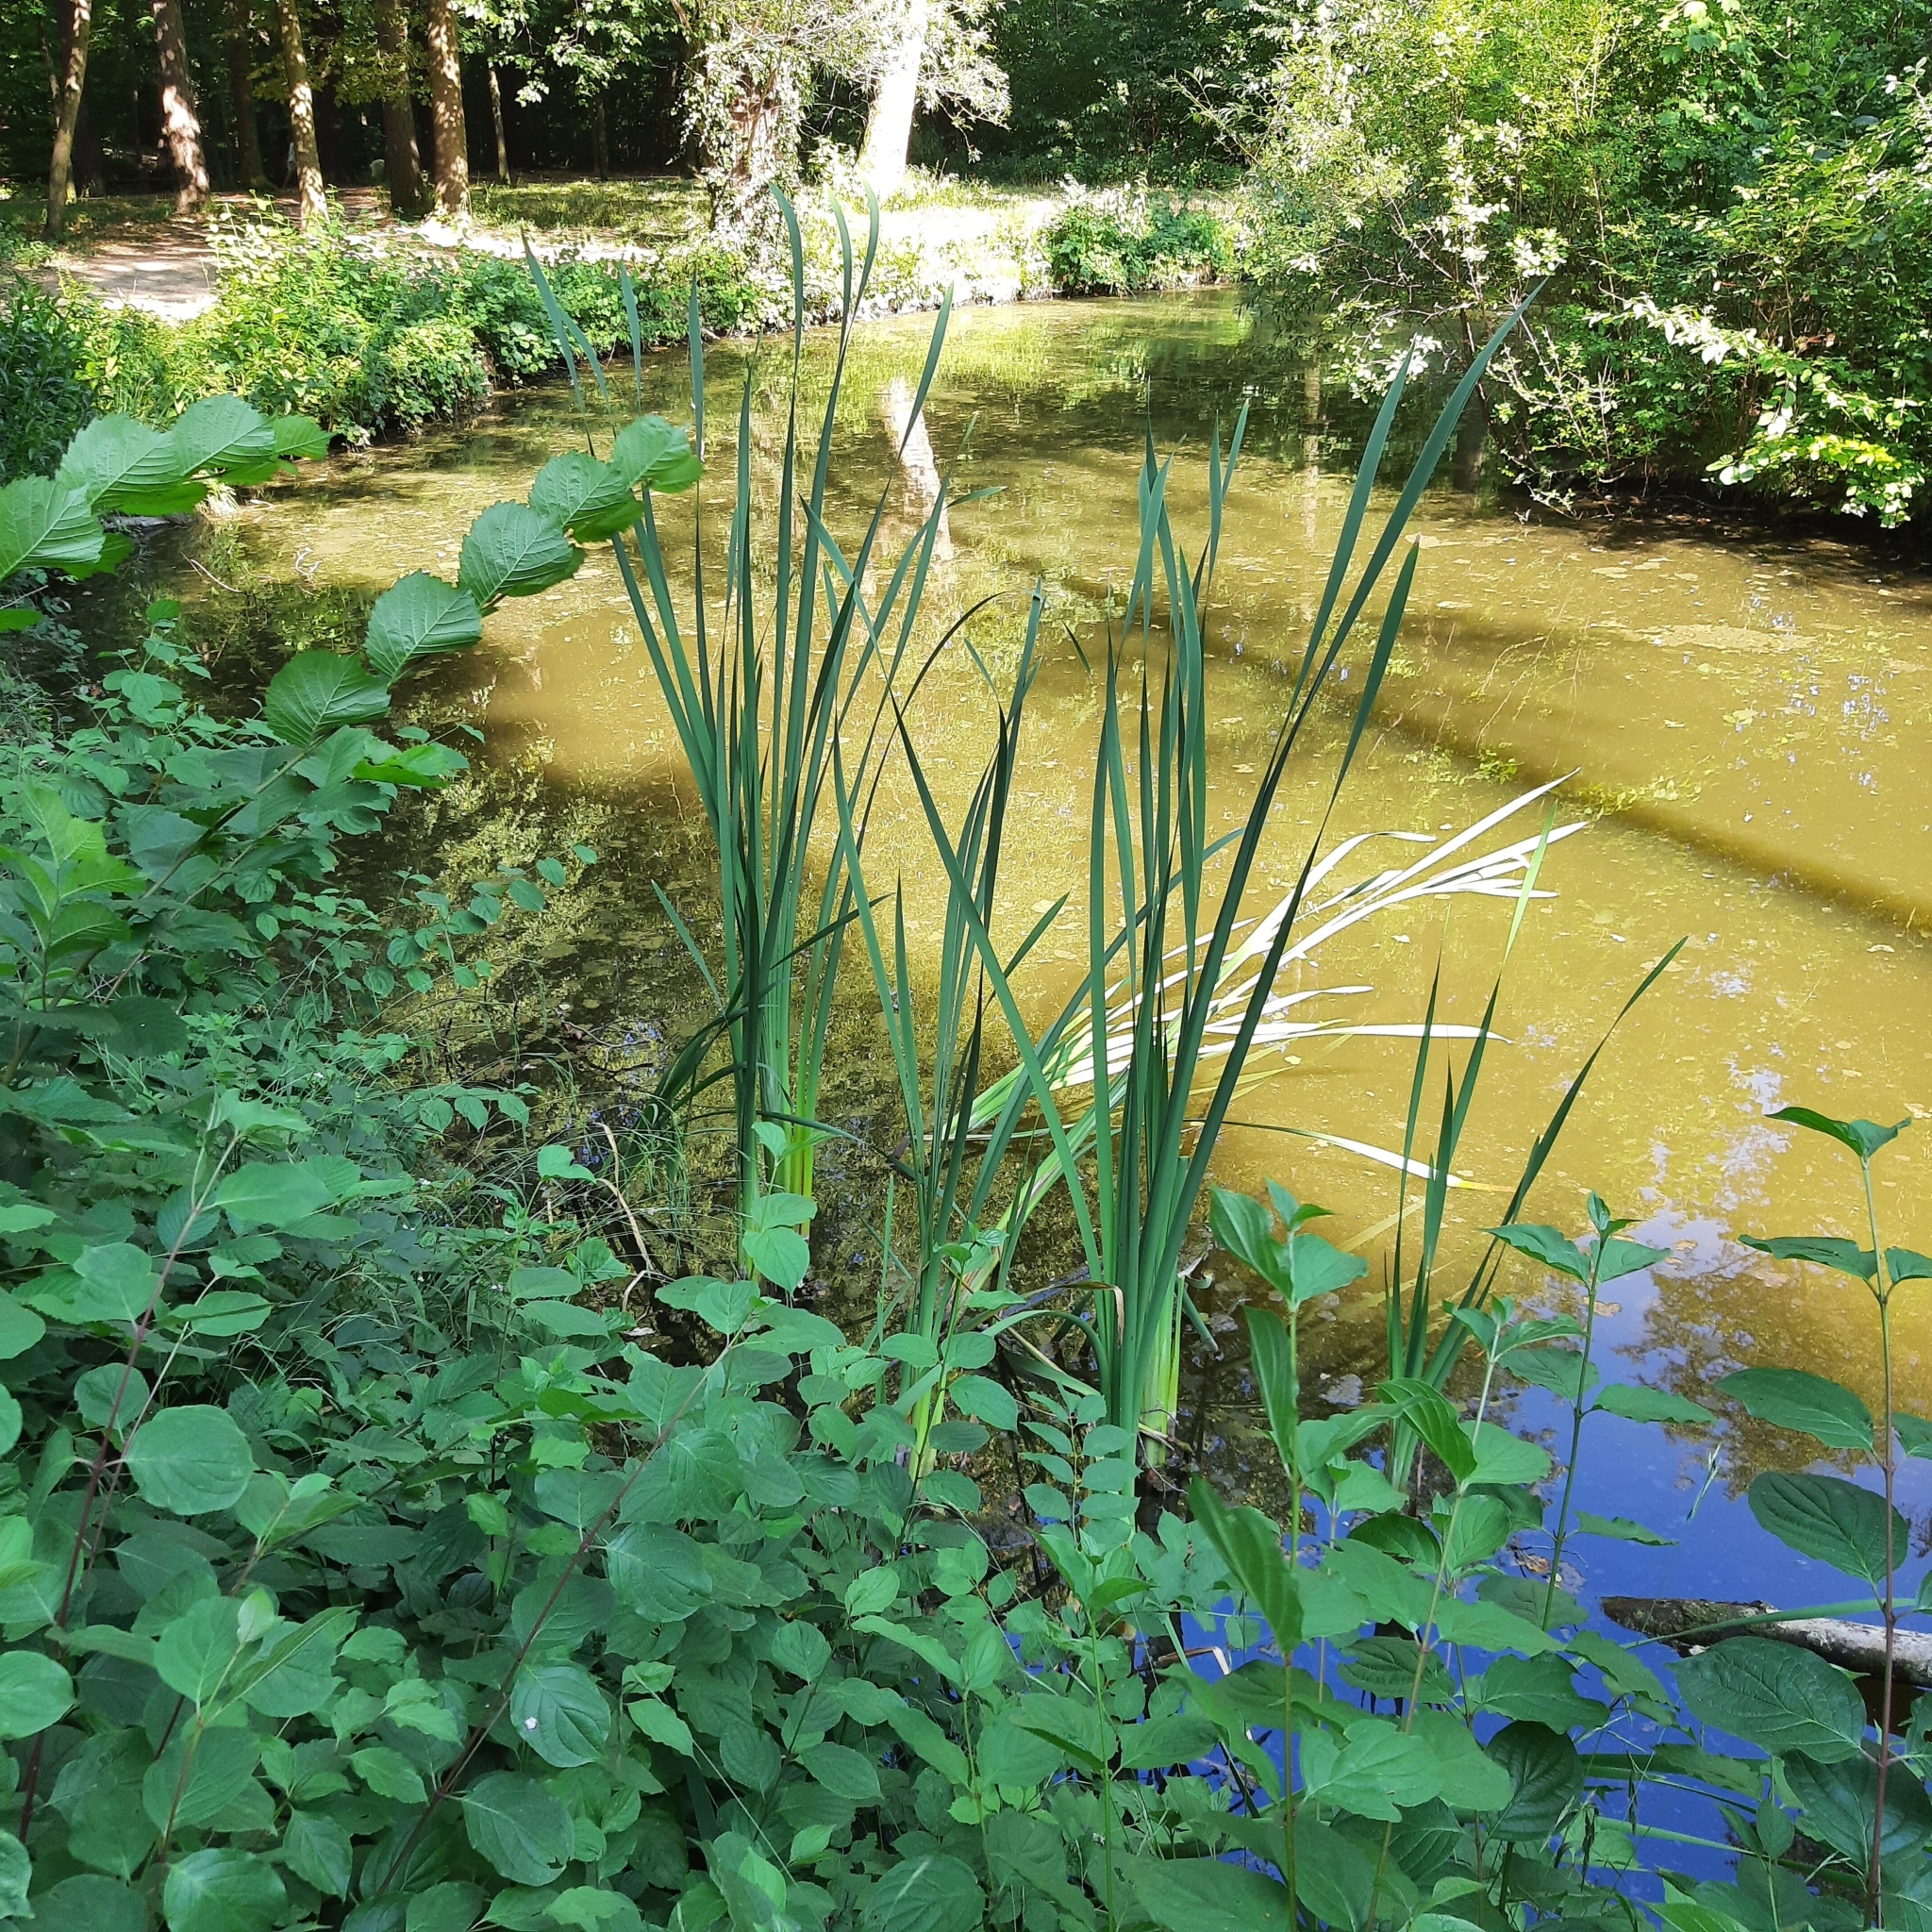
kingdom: Plantae
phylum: Tracheophyta
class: Liliopsida
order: Poales
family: Typhaceae
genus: Typha
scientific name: Typha latifolia
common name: Broadleaf cattail
